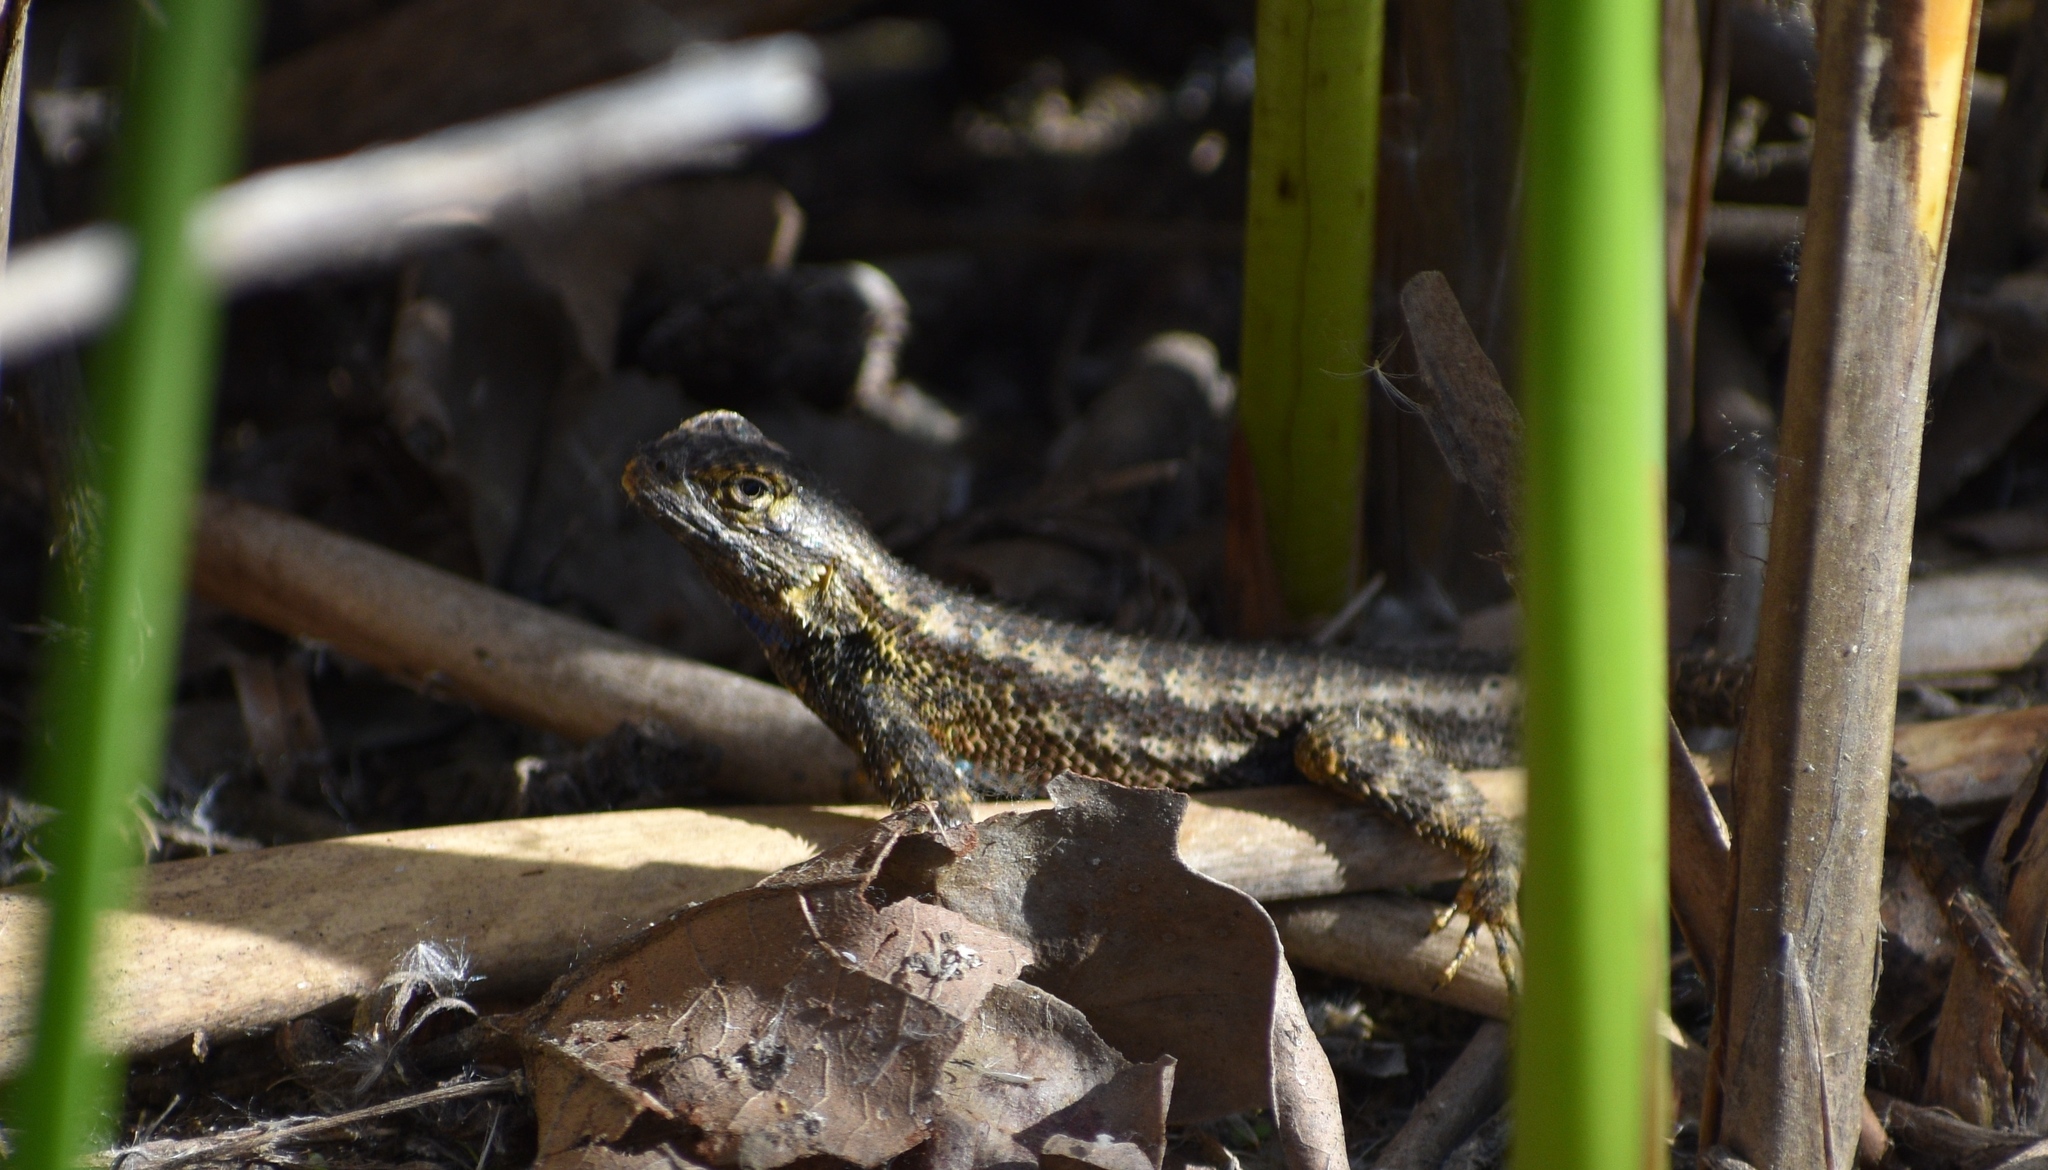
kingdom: Animalia
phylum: Chordata
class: Squamata
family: Phrynosomatidae
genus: Sceloporus
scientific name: Sceloporus occidentalis
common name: Western fence lizard
